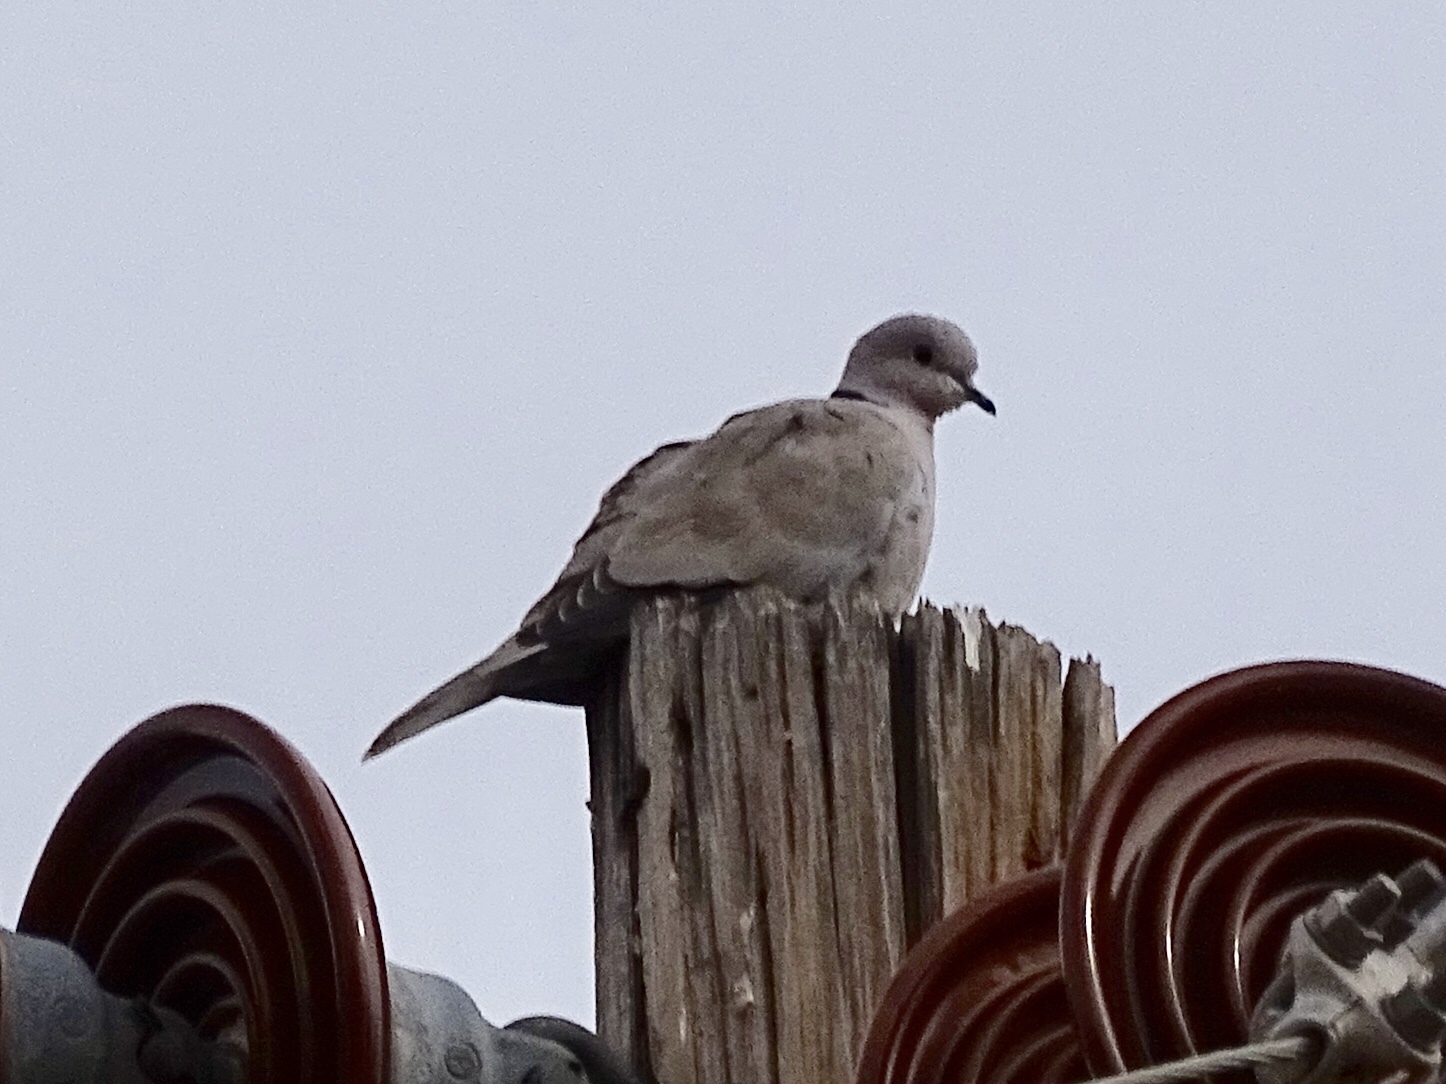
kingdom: Animalia
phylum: Chordata
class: Aves
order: Columbiformes
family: Columbidae
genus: Streptopelia
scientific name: Streptopelia decaocto
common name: Eurasian collared dove
